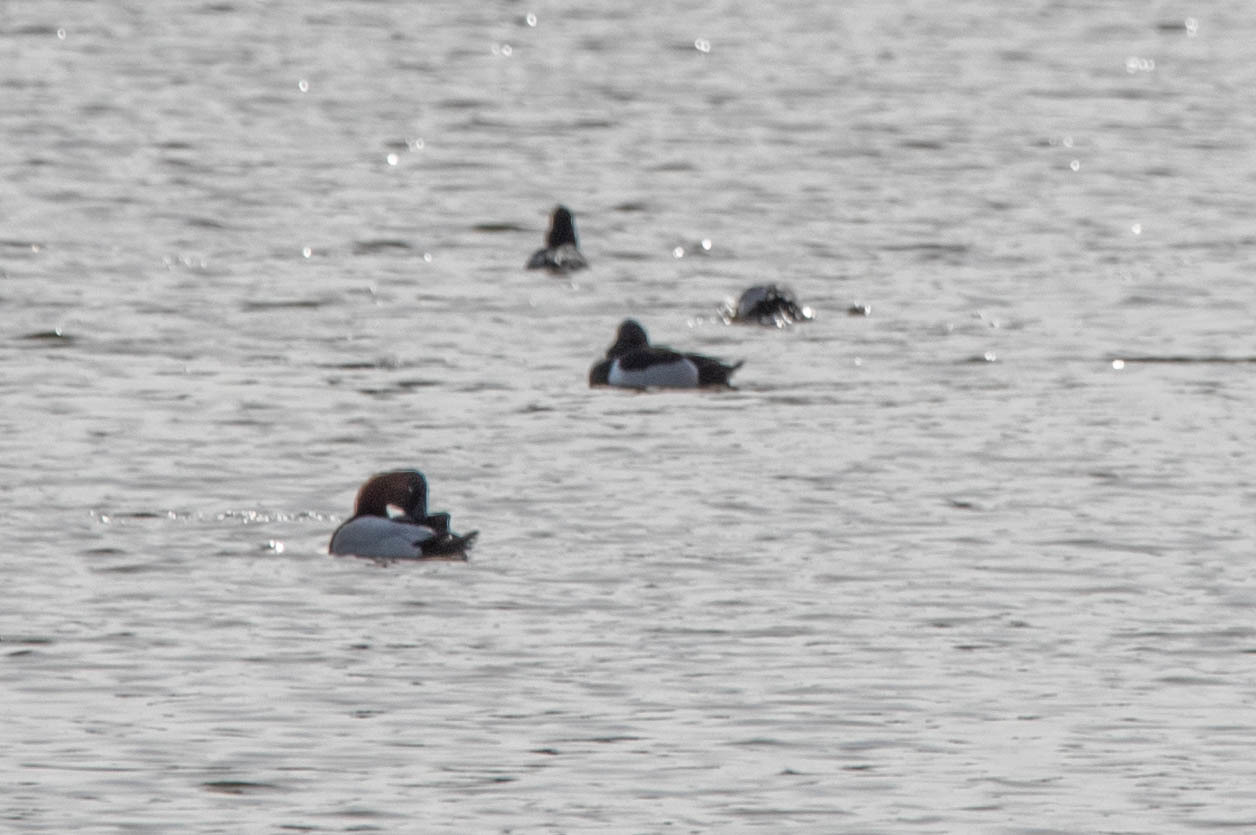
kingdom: Animalia
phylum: Chordata
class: Aves
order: Anseriformes
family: Anatidae
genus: Aythya
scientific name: Aythya valisineria
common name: Canvasback
